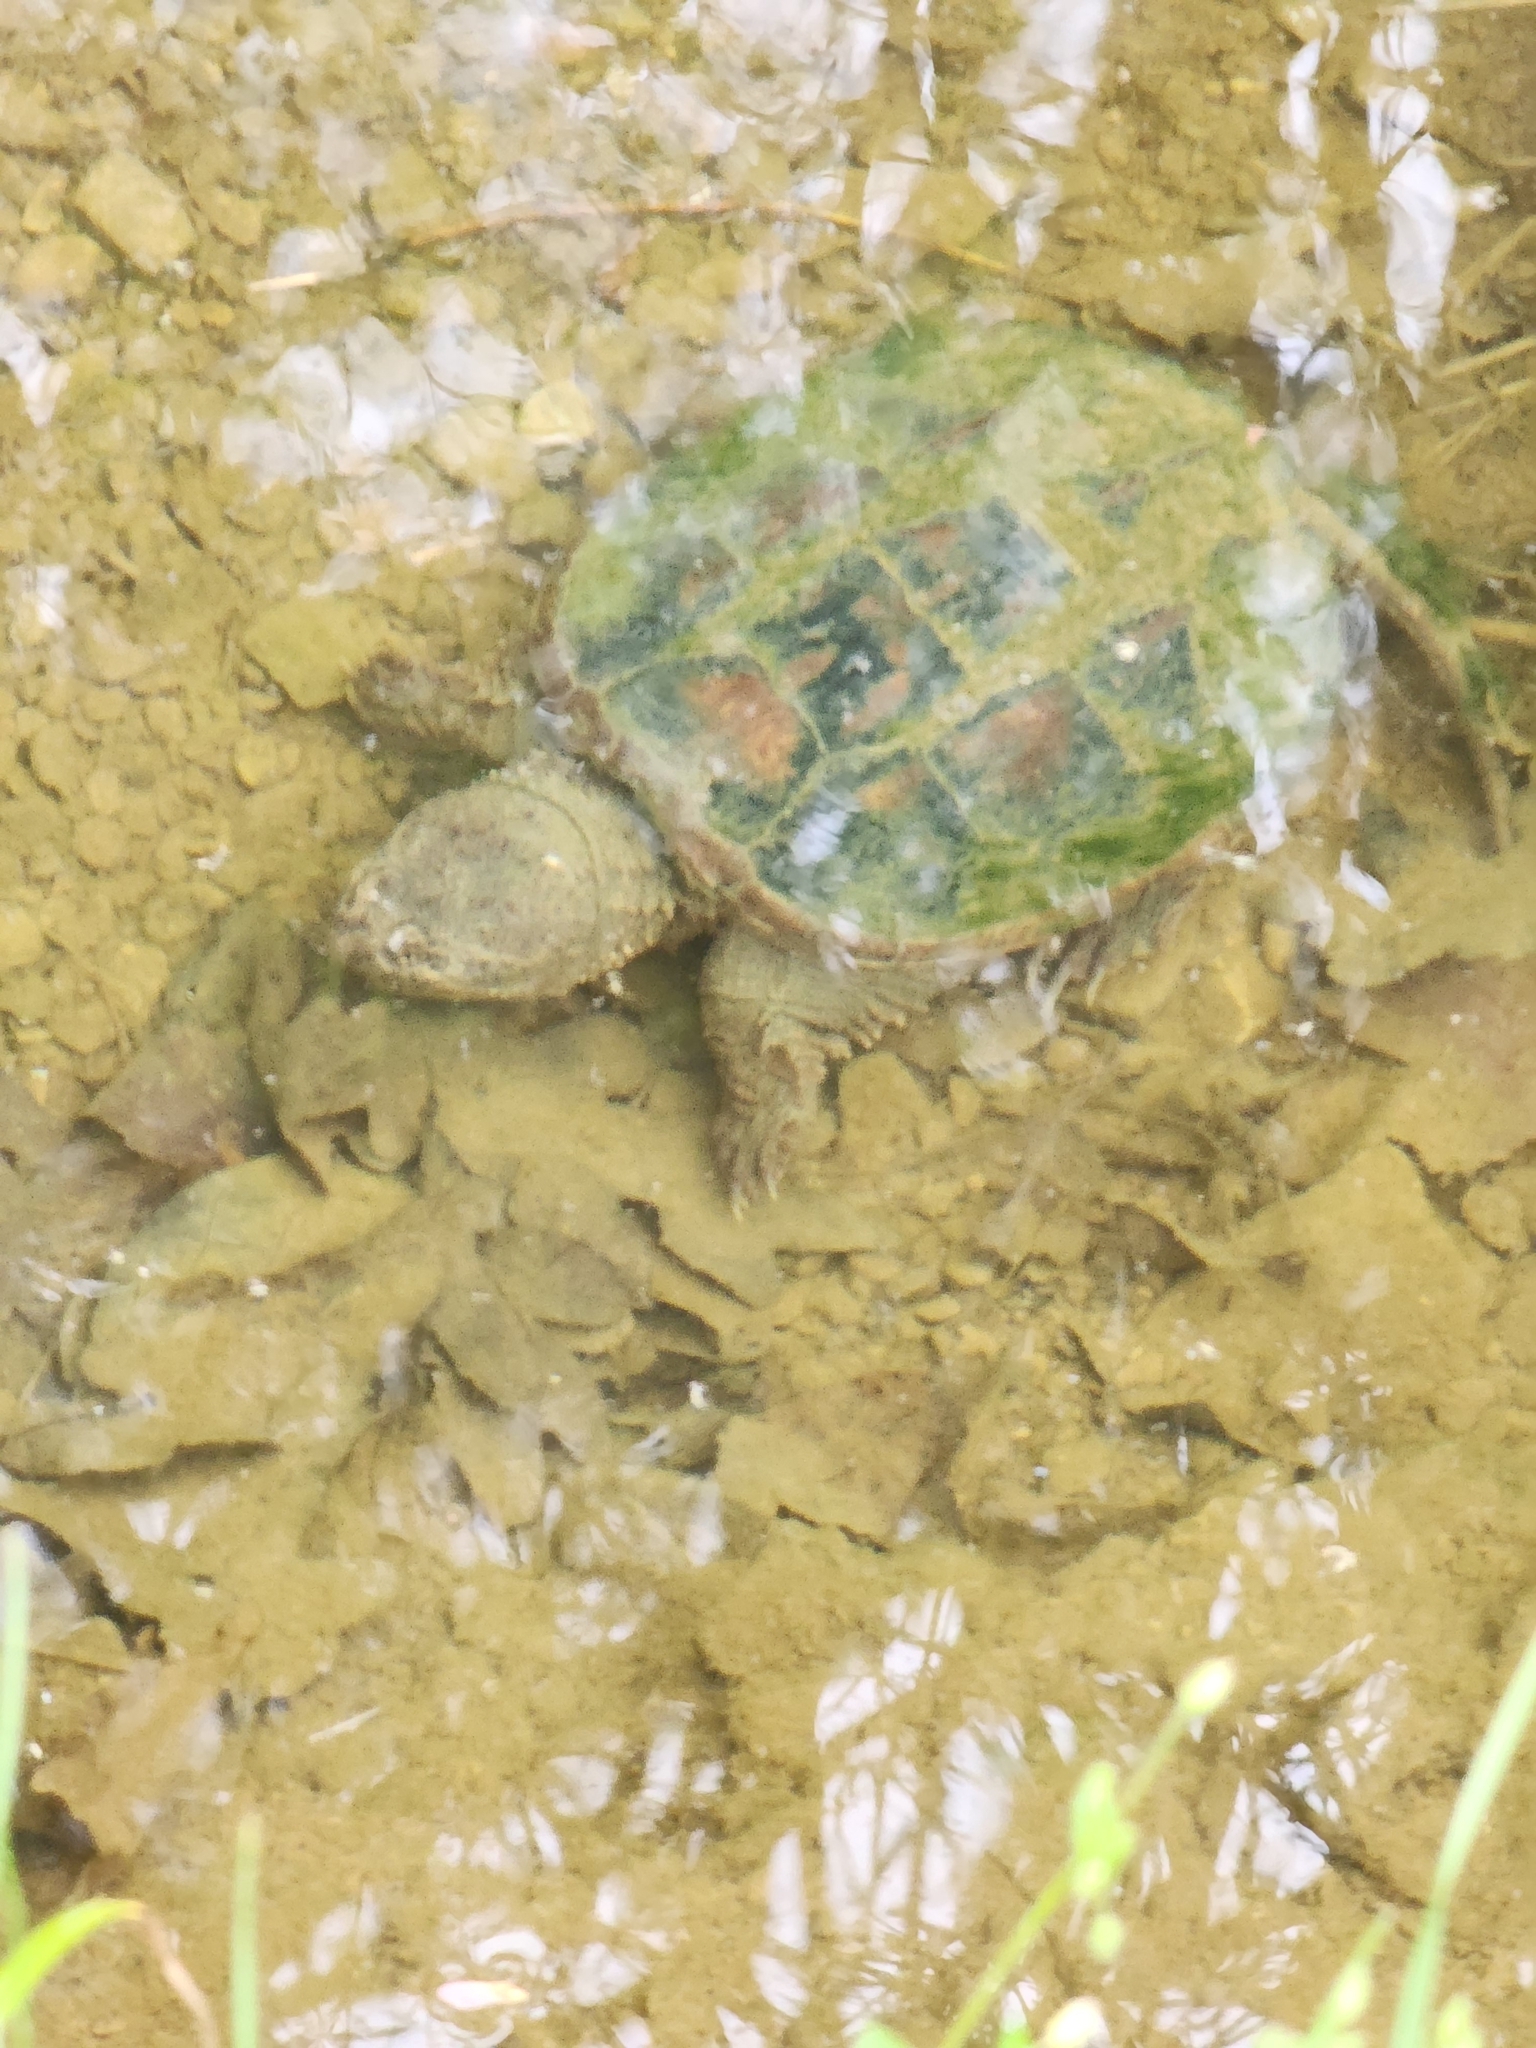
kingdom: Animalia
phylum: Chordata
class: Testudines
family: Chelydridae
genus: Chelydra
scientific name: Chelydra serpentina
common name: Common snapping turtle
